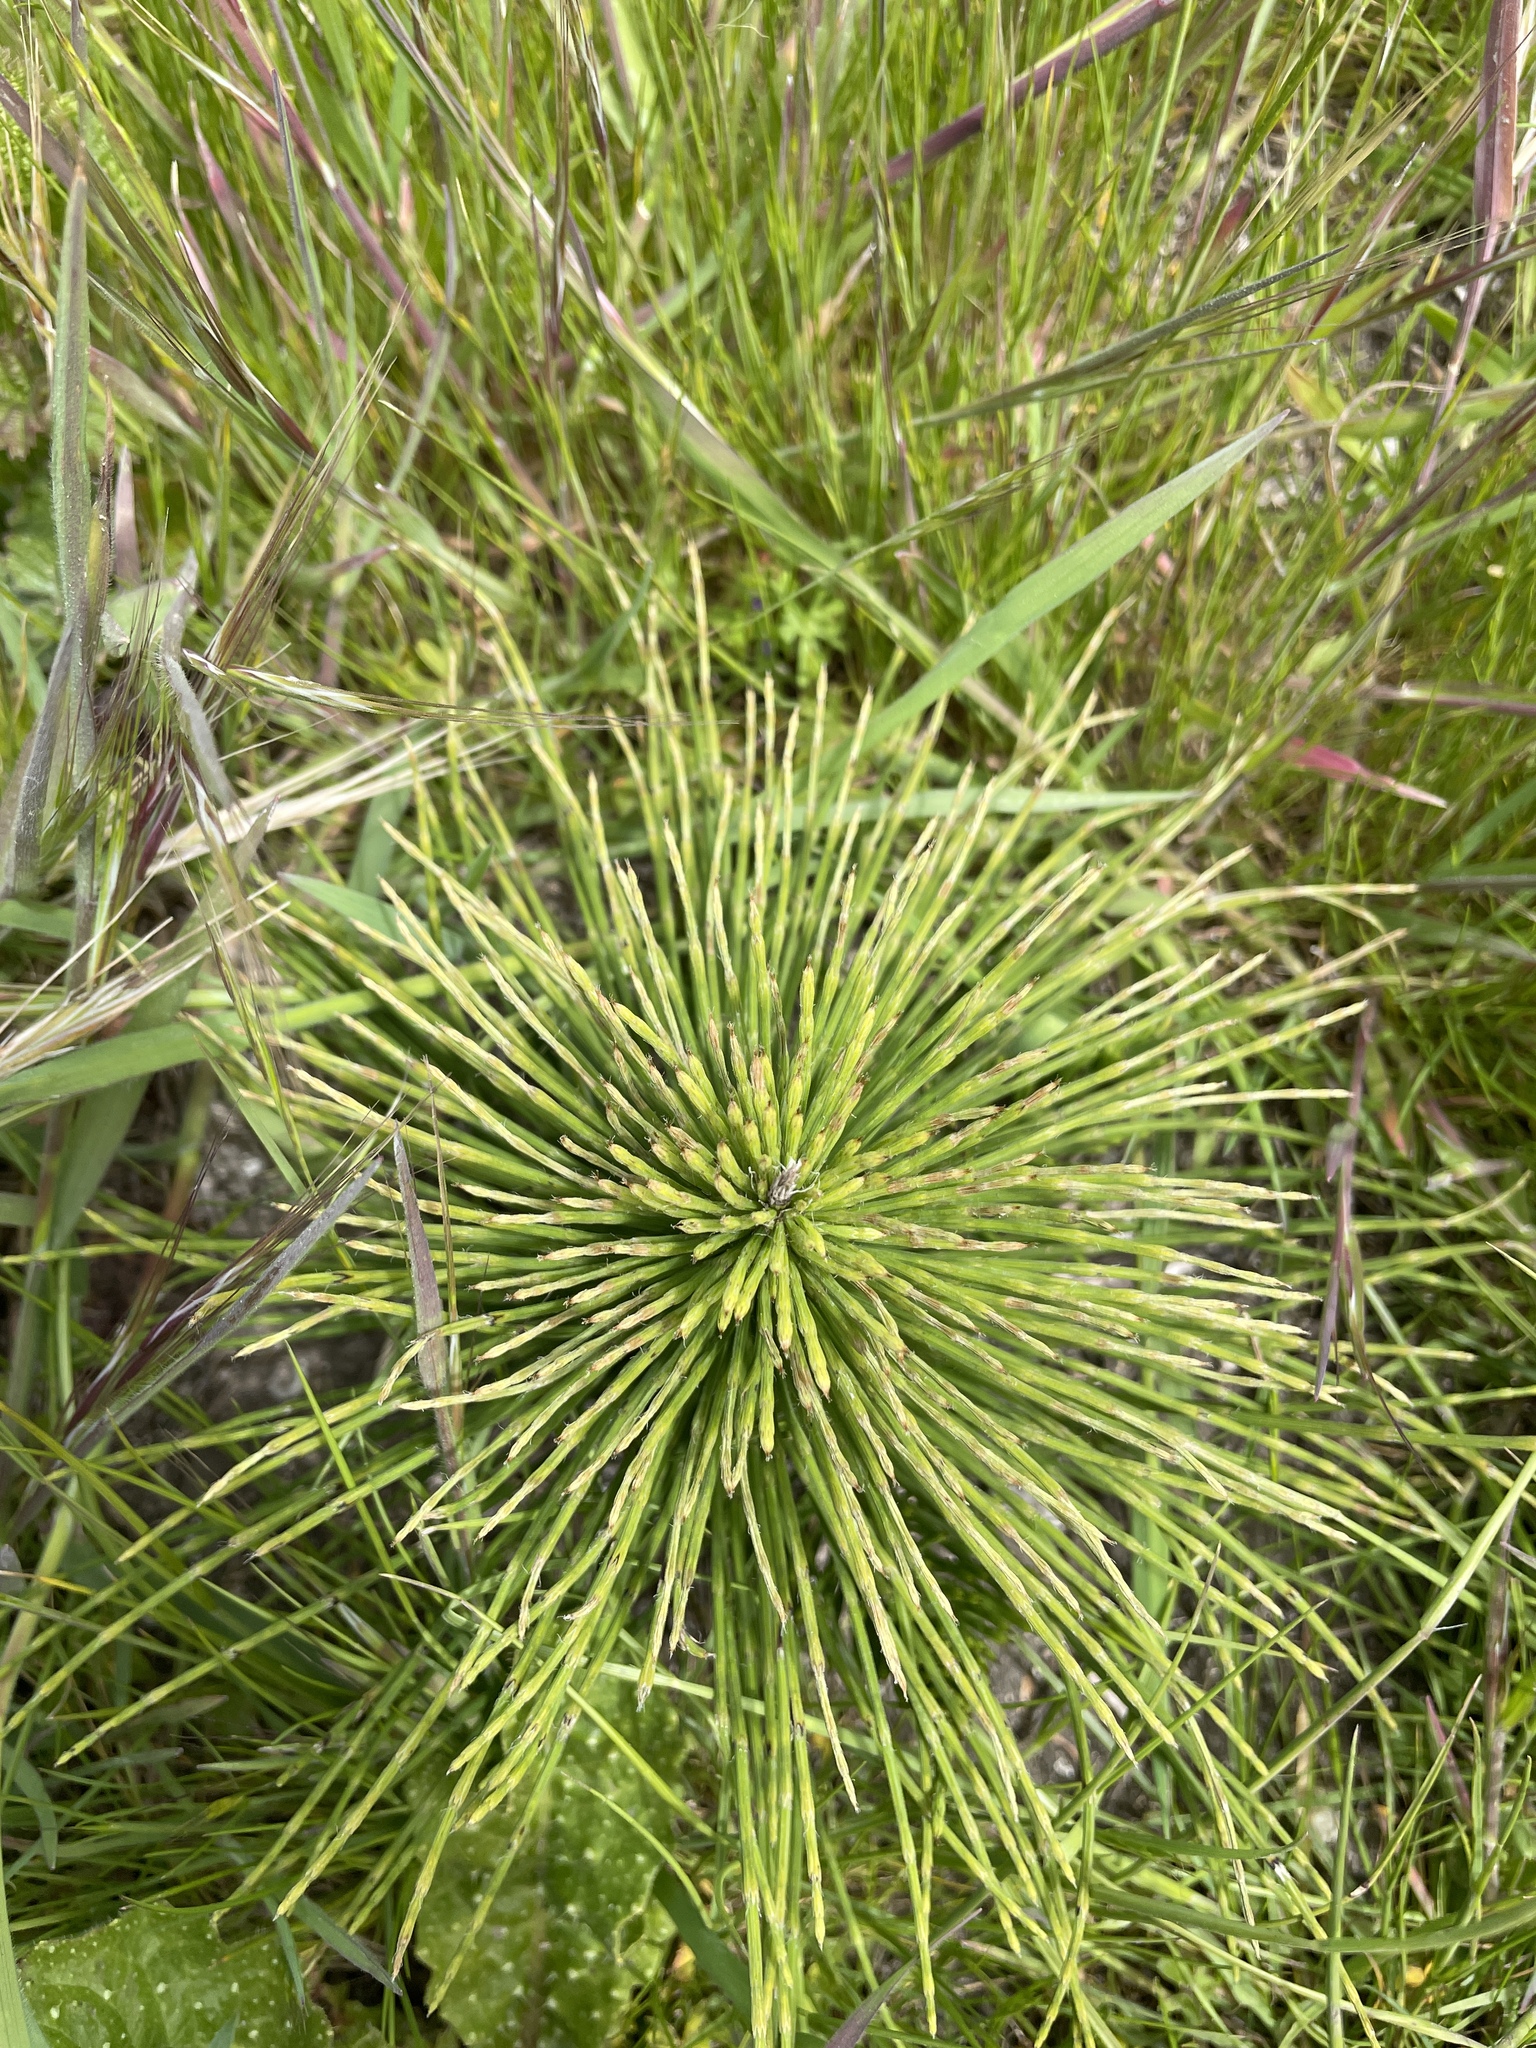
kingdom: Plantae
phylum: Tracheophyta
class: Polypodiopsida
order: Equisetales
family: Equisetaceae
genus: Equisetum
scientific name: Equisetum braunii
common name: Braun's horsetail
